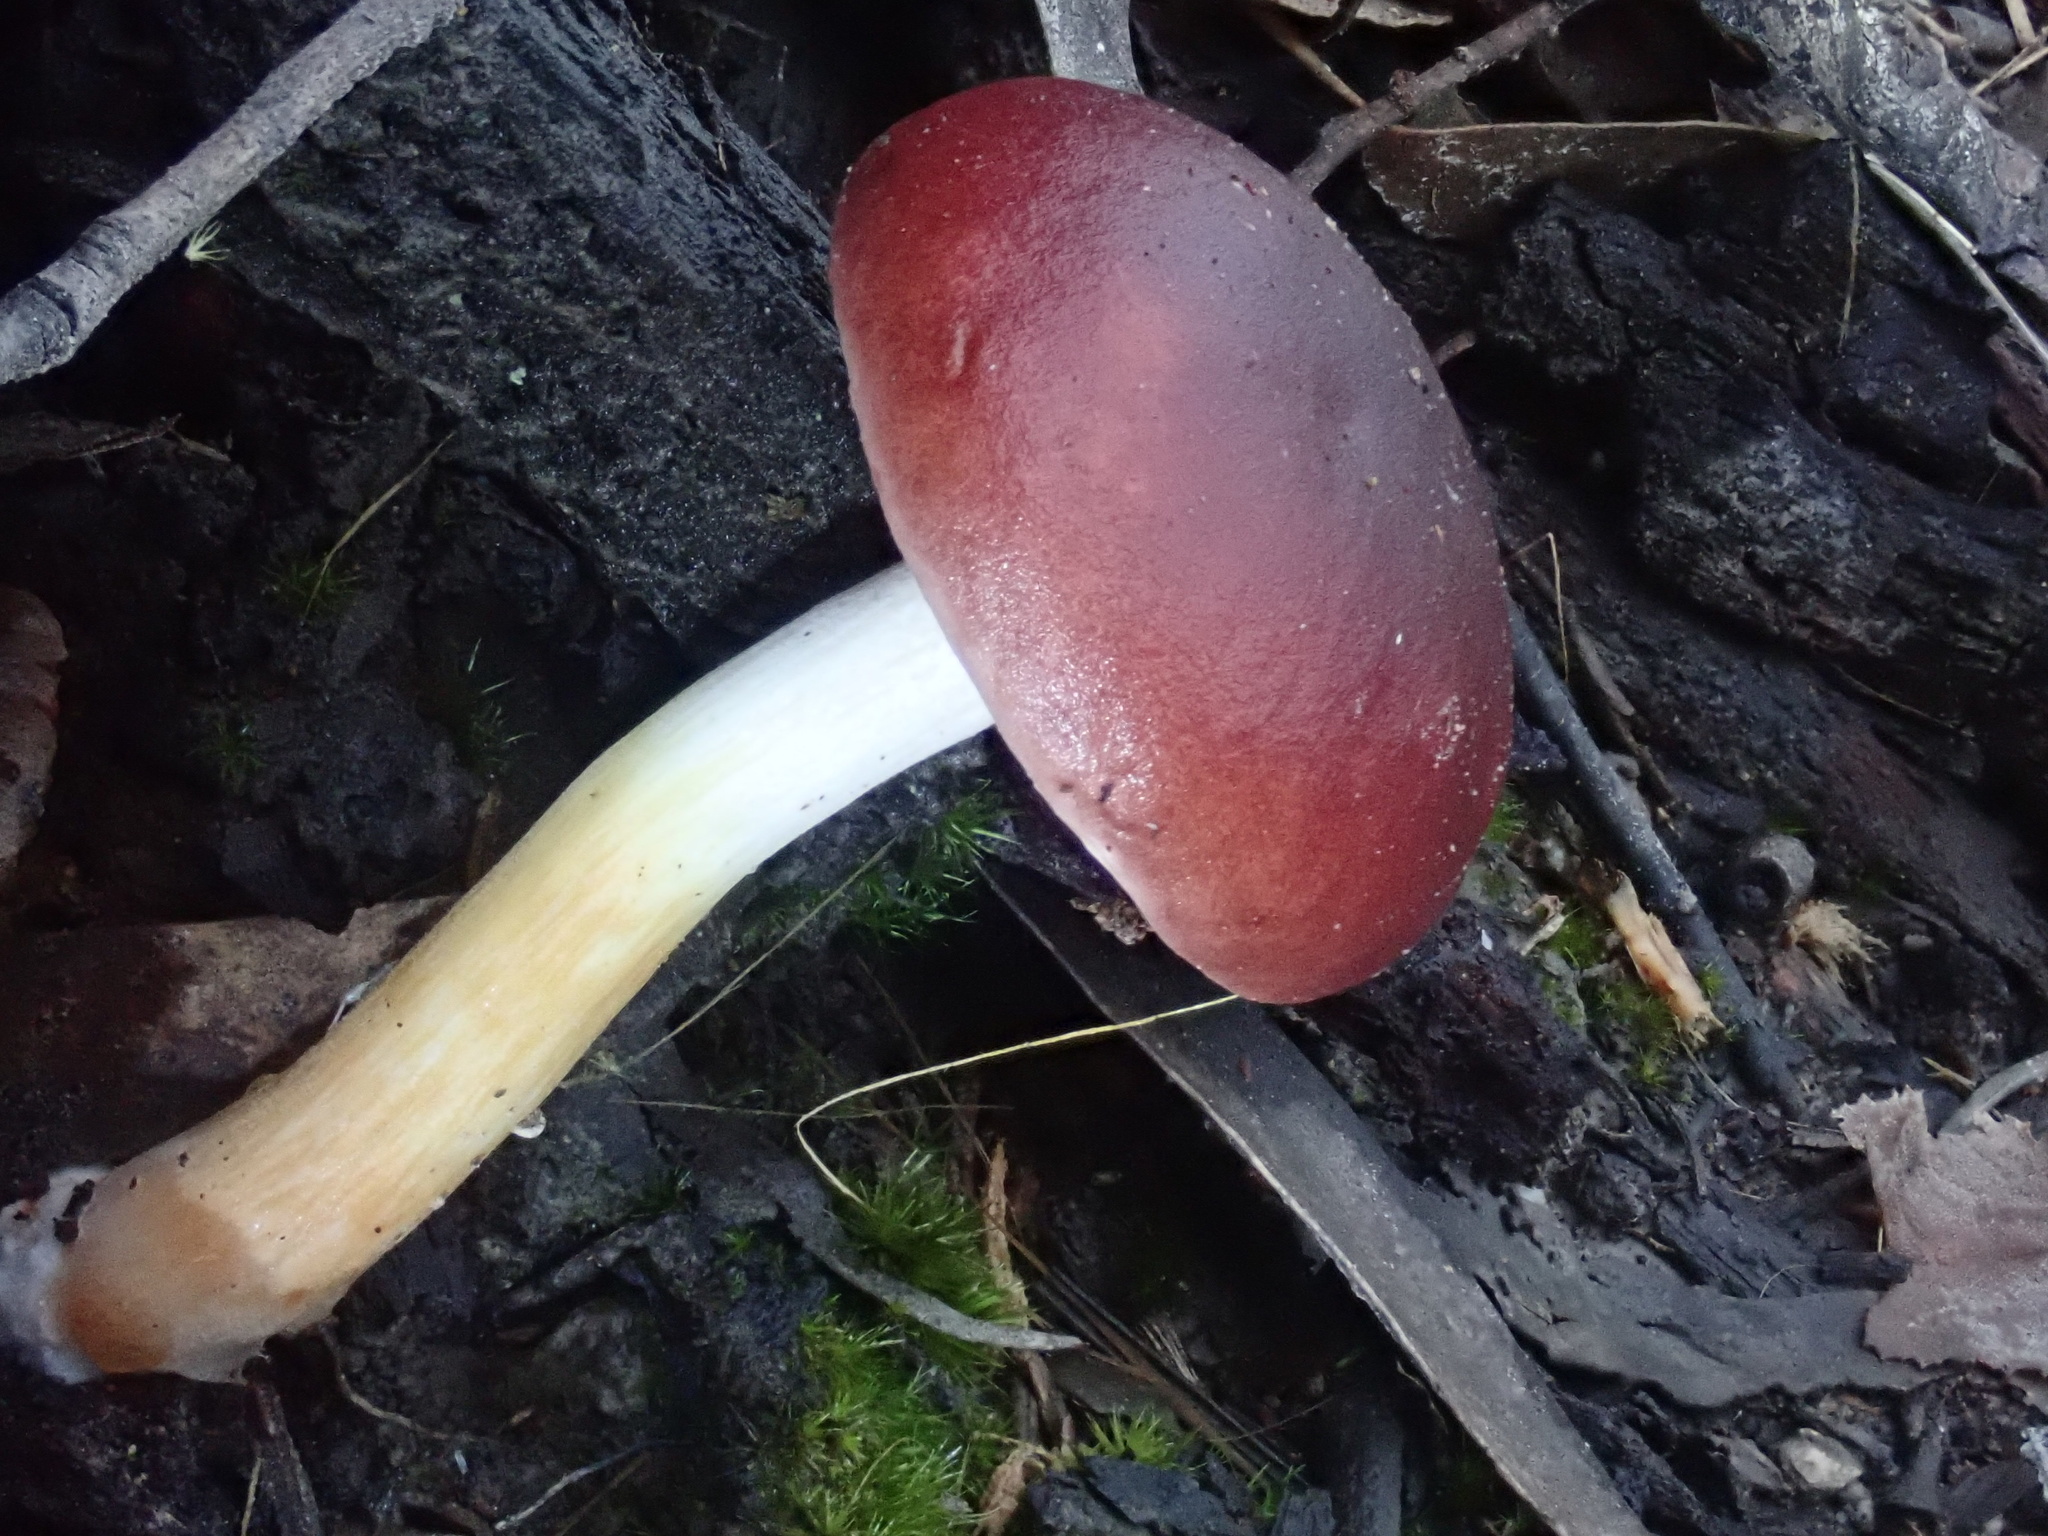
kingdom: Fungi
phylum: Basidiomycota
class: Agaricomycetes
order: Boletales
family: Boletaceae
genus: Fistulinella
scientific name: Fistulinella prunicolor
